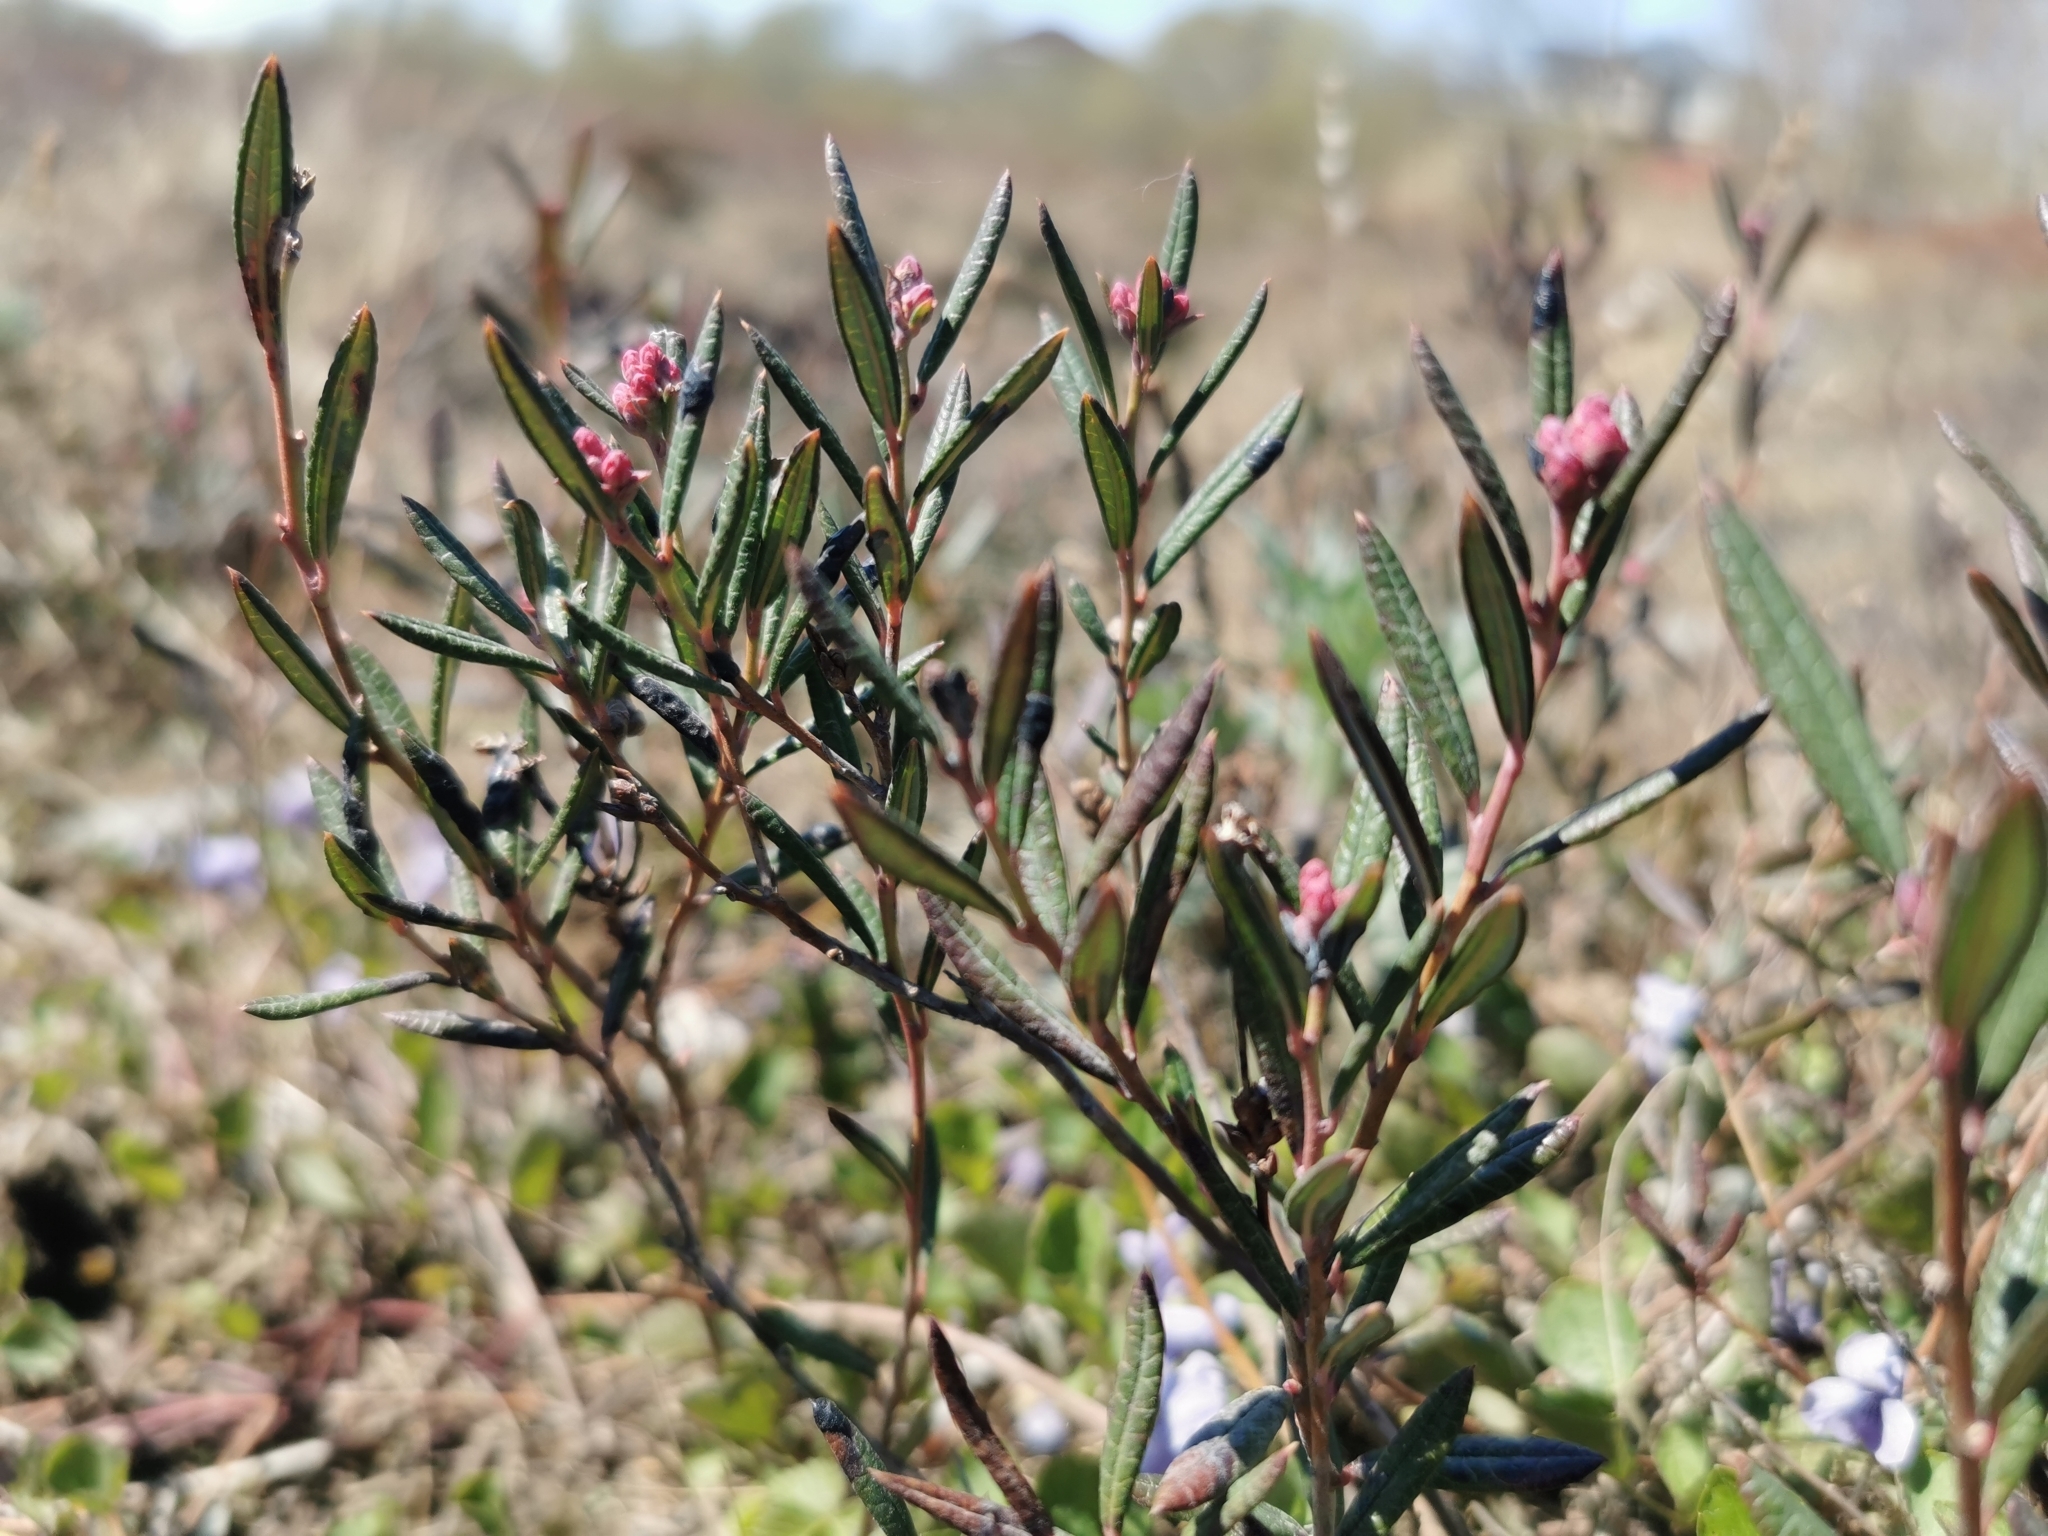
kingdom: Plantae
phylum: Tracheophyta
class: Magnoliopsida
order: Ericales
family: Ericaceae
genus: Andromeda
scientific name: Andromeda polifolia
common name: Bog-rosemary
